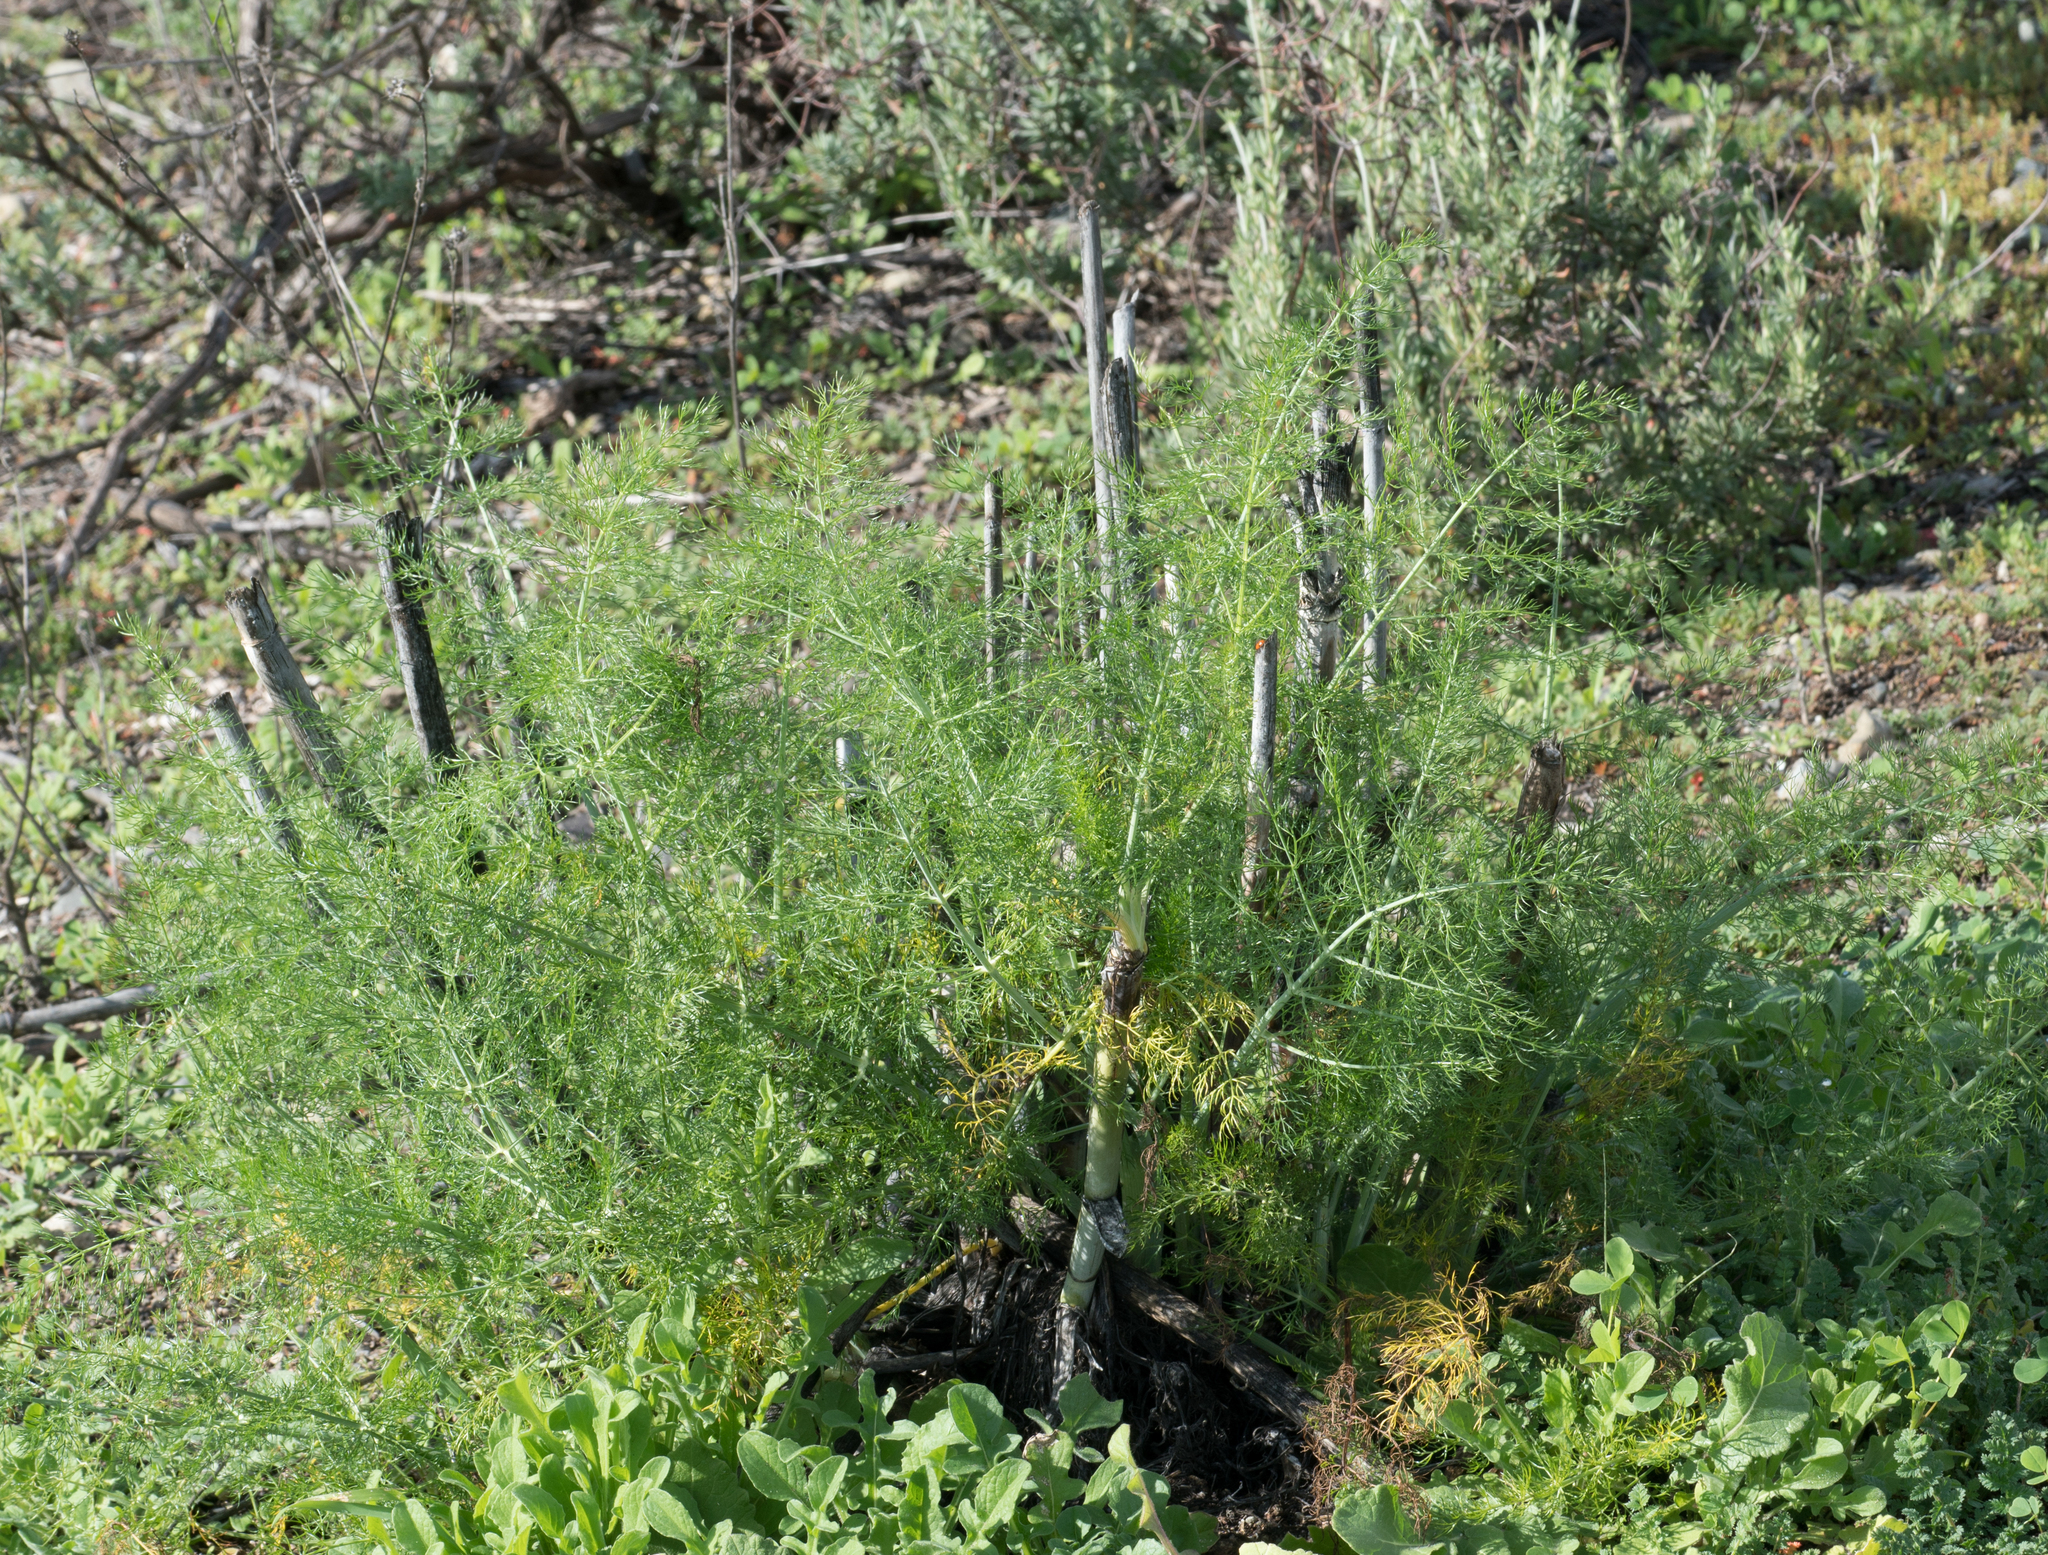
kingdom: Plantae
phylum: Tracheophyta
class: Magnoliopsida
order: Apiales
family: Apiaceae
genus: Foeniculum
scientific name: Foeniculum vulgare
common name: Fennel
